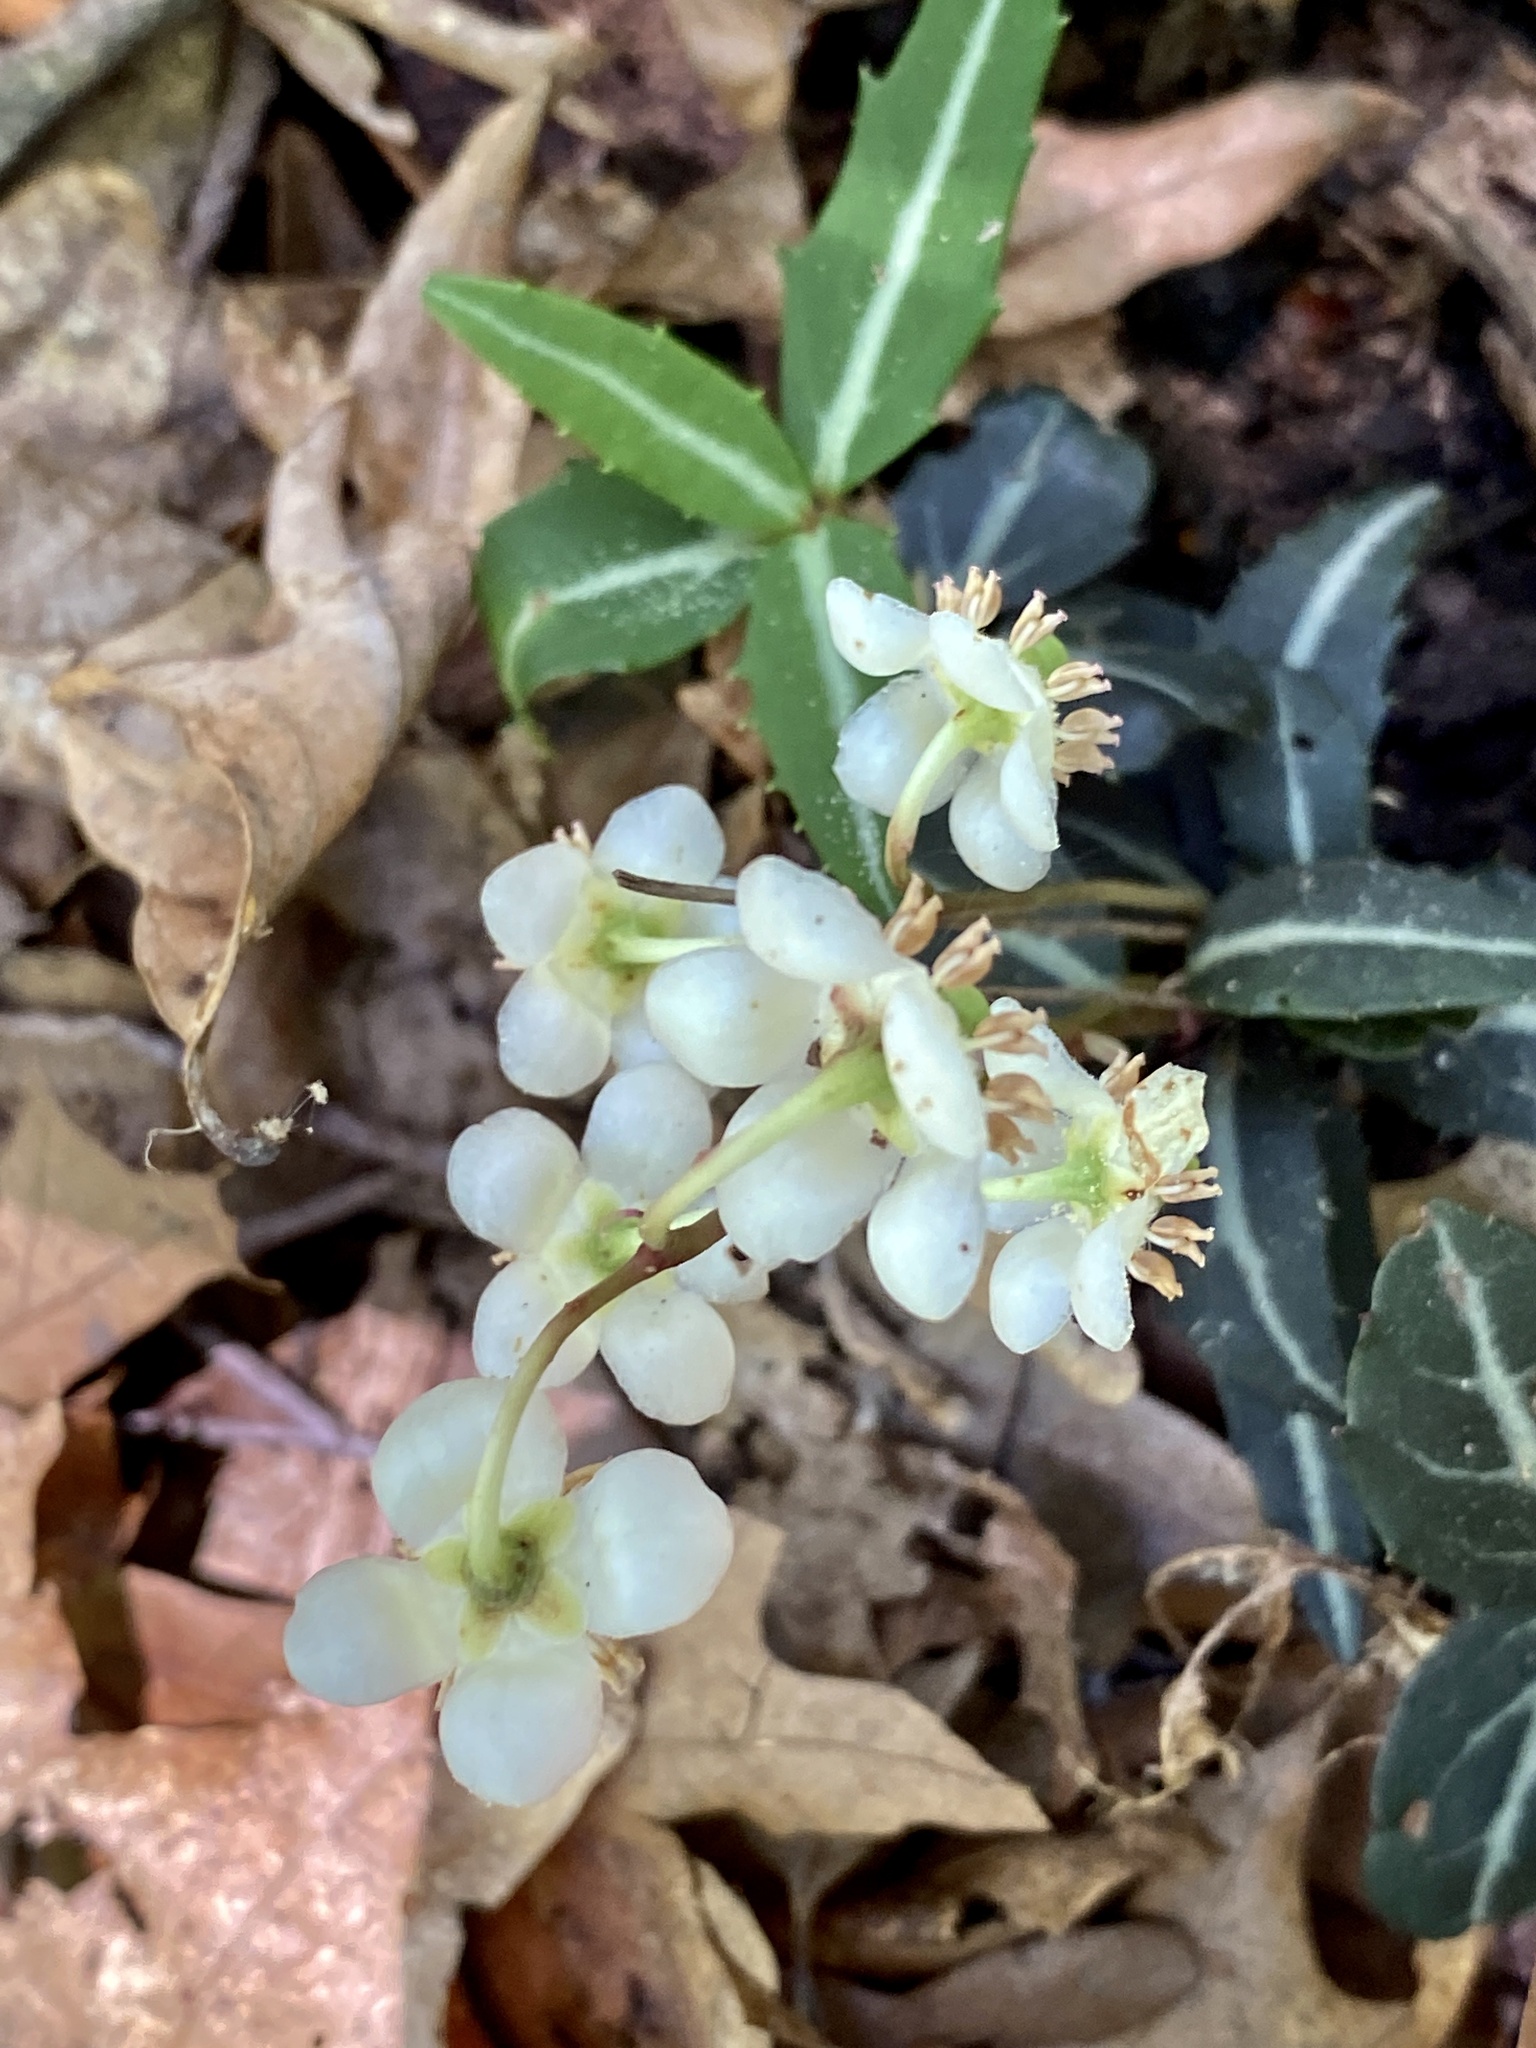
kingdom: Plantae
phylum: Tracheophyta
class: Magnoliopsida
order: Ericales
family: Ericaceae
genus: Chimaphila
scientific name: Chimaphila maculata
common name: Spotted pipsissewa
